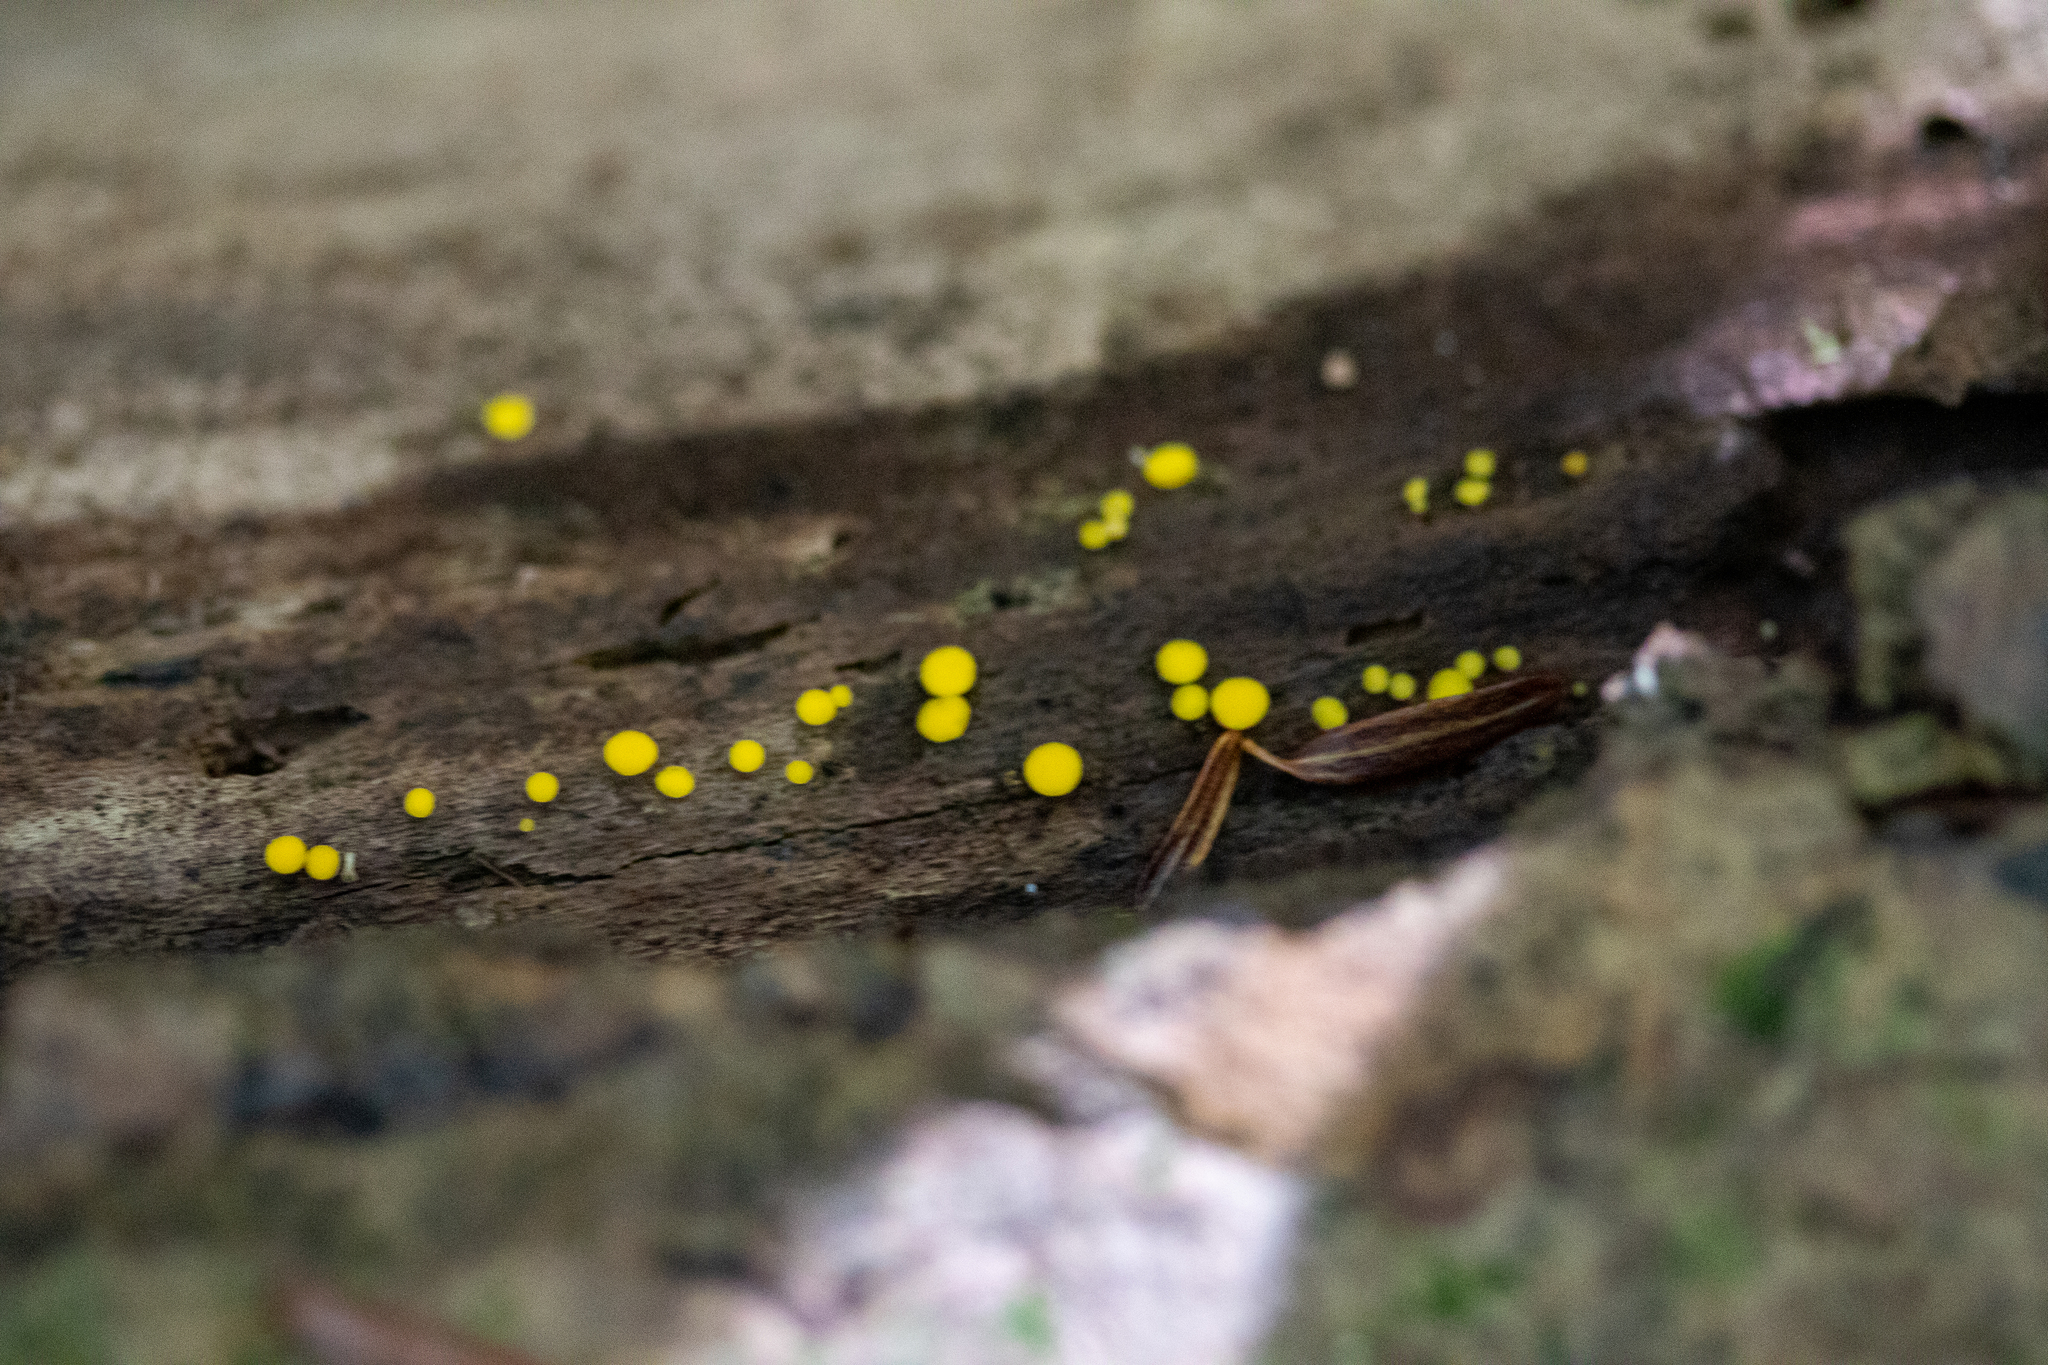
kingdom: Fungi
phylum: Ascomycota
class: Leotiomycetes
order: Helotiales
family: Pezizellaceae
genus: Calycina
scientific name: Calycina claroflava
